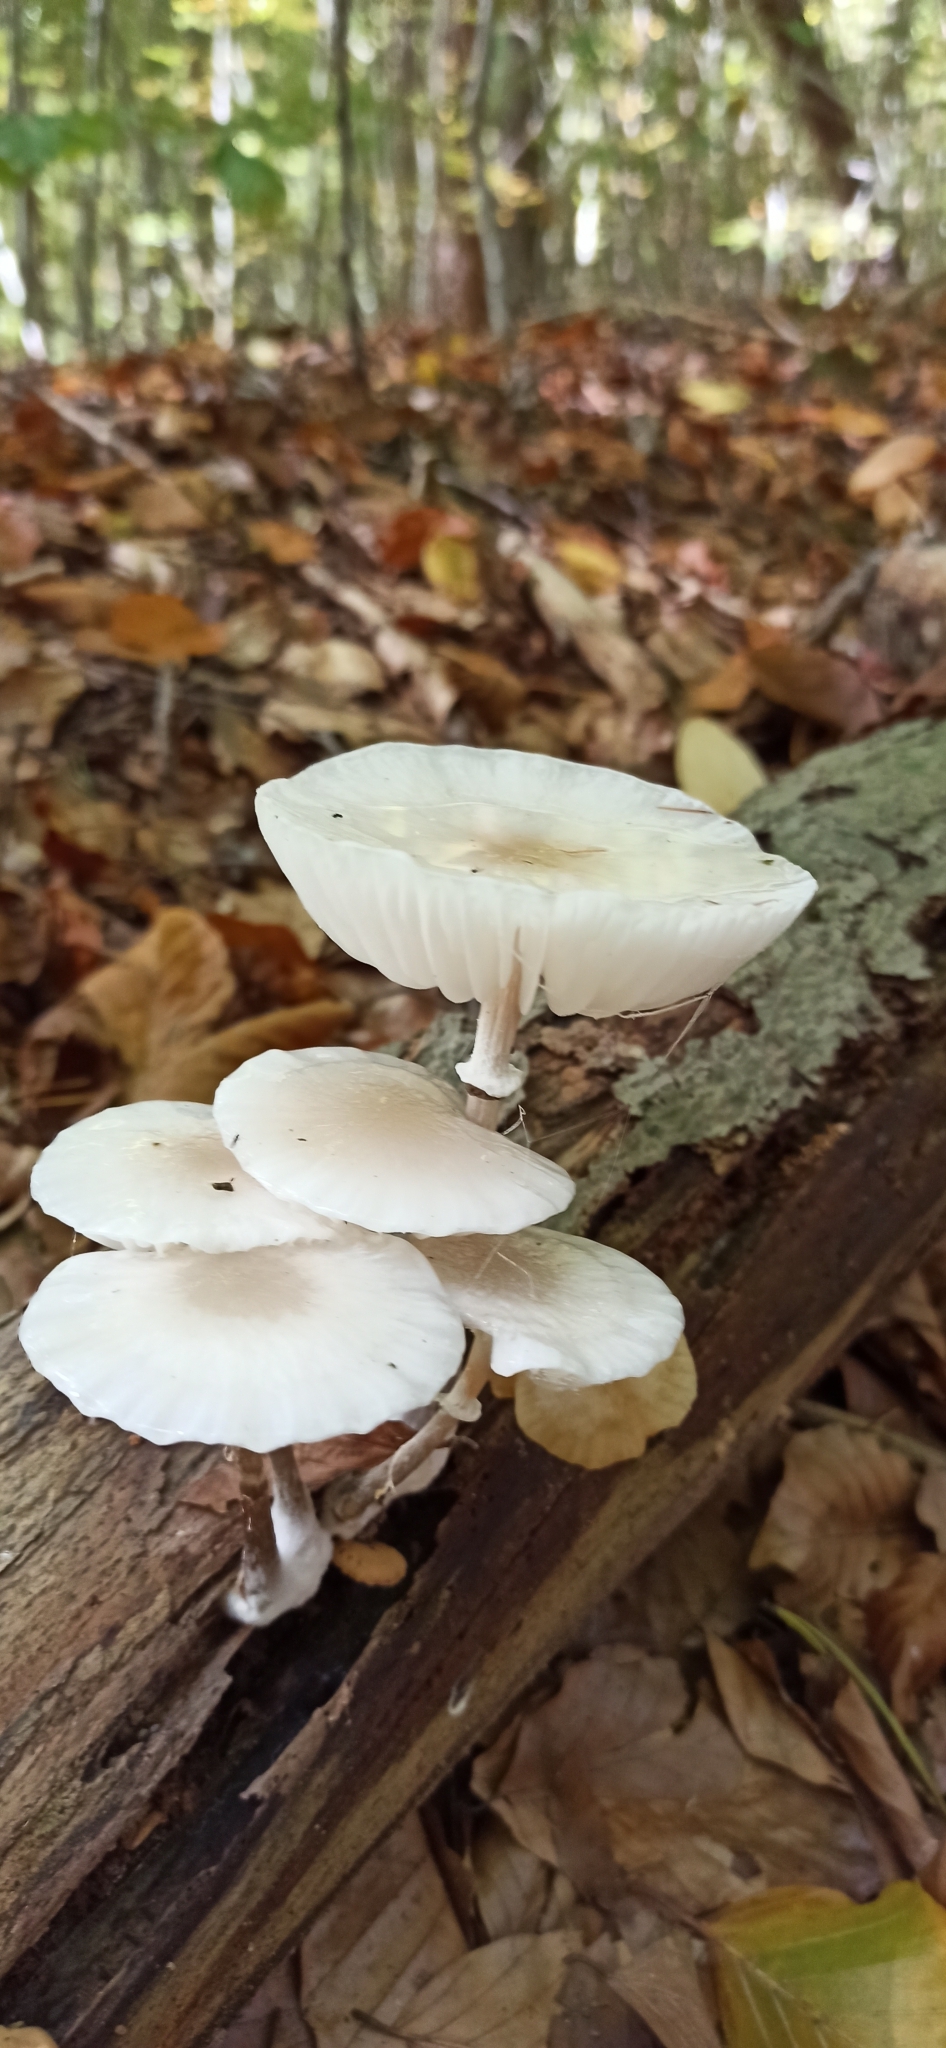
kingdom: Fungi
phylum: Basidiomycota
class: Agaricomycetes
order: Agaricales
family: Physalacriaceae
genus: Mucidula
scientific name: Mucidula mucida
